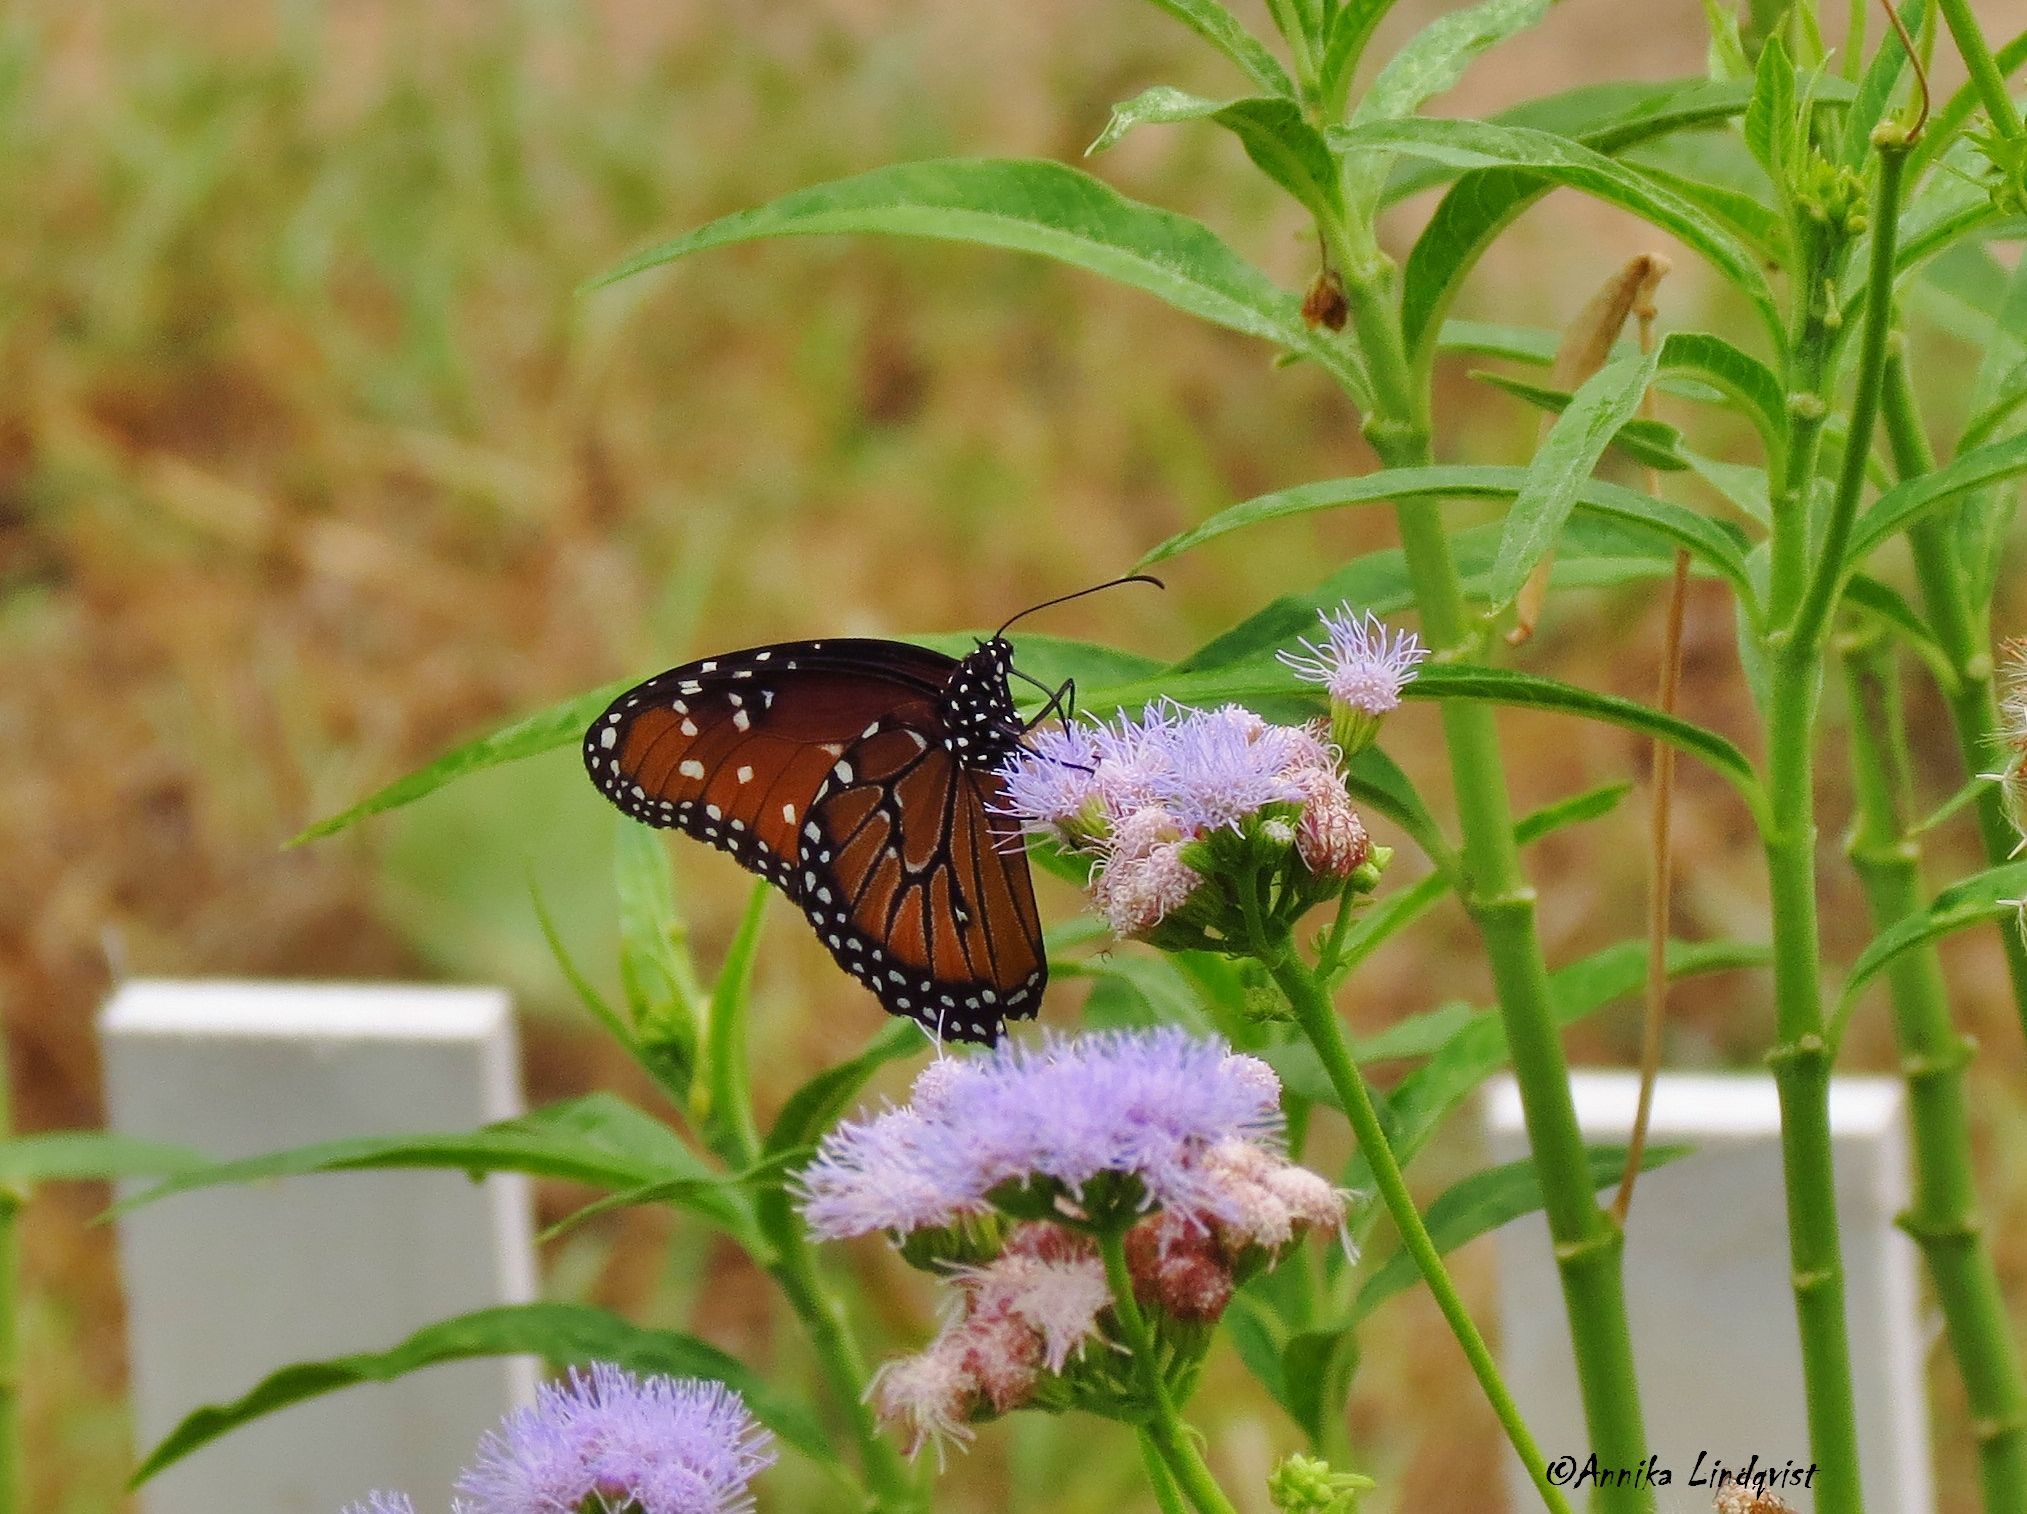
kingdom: Animalia
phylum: Arthropoda
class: Insecta
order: Lepidoptera
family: Nymphalidae
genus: Danaus
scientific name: Danaus gilippus
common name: Queen
